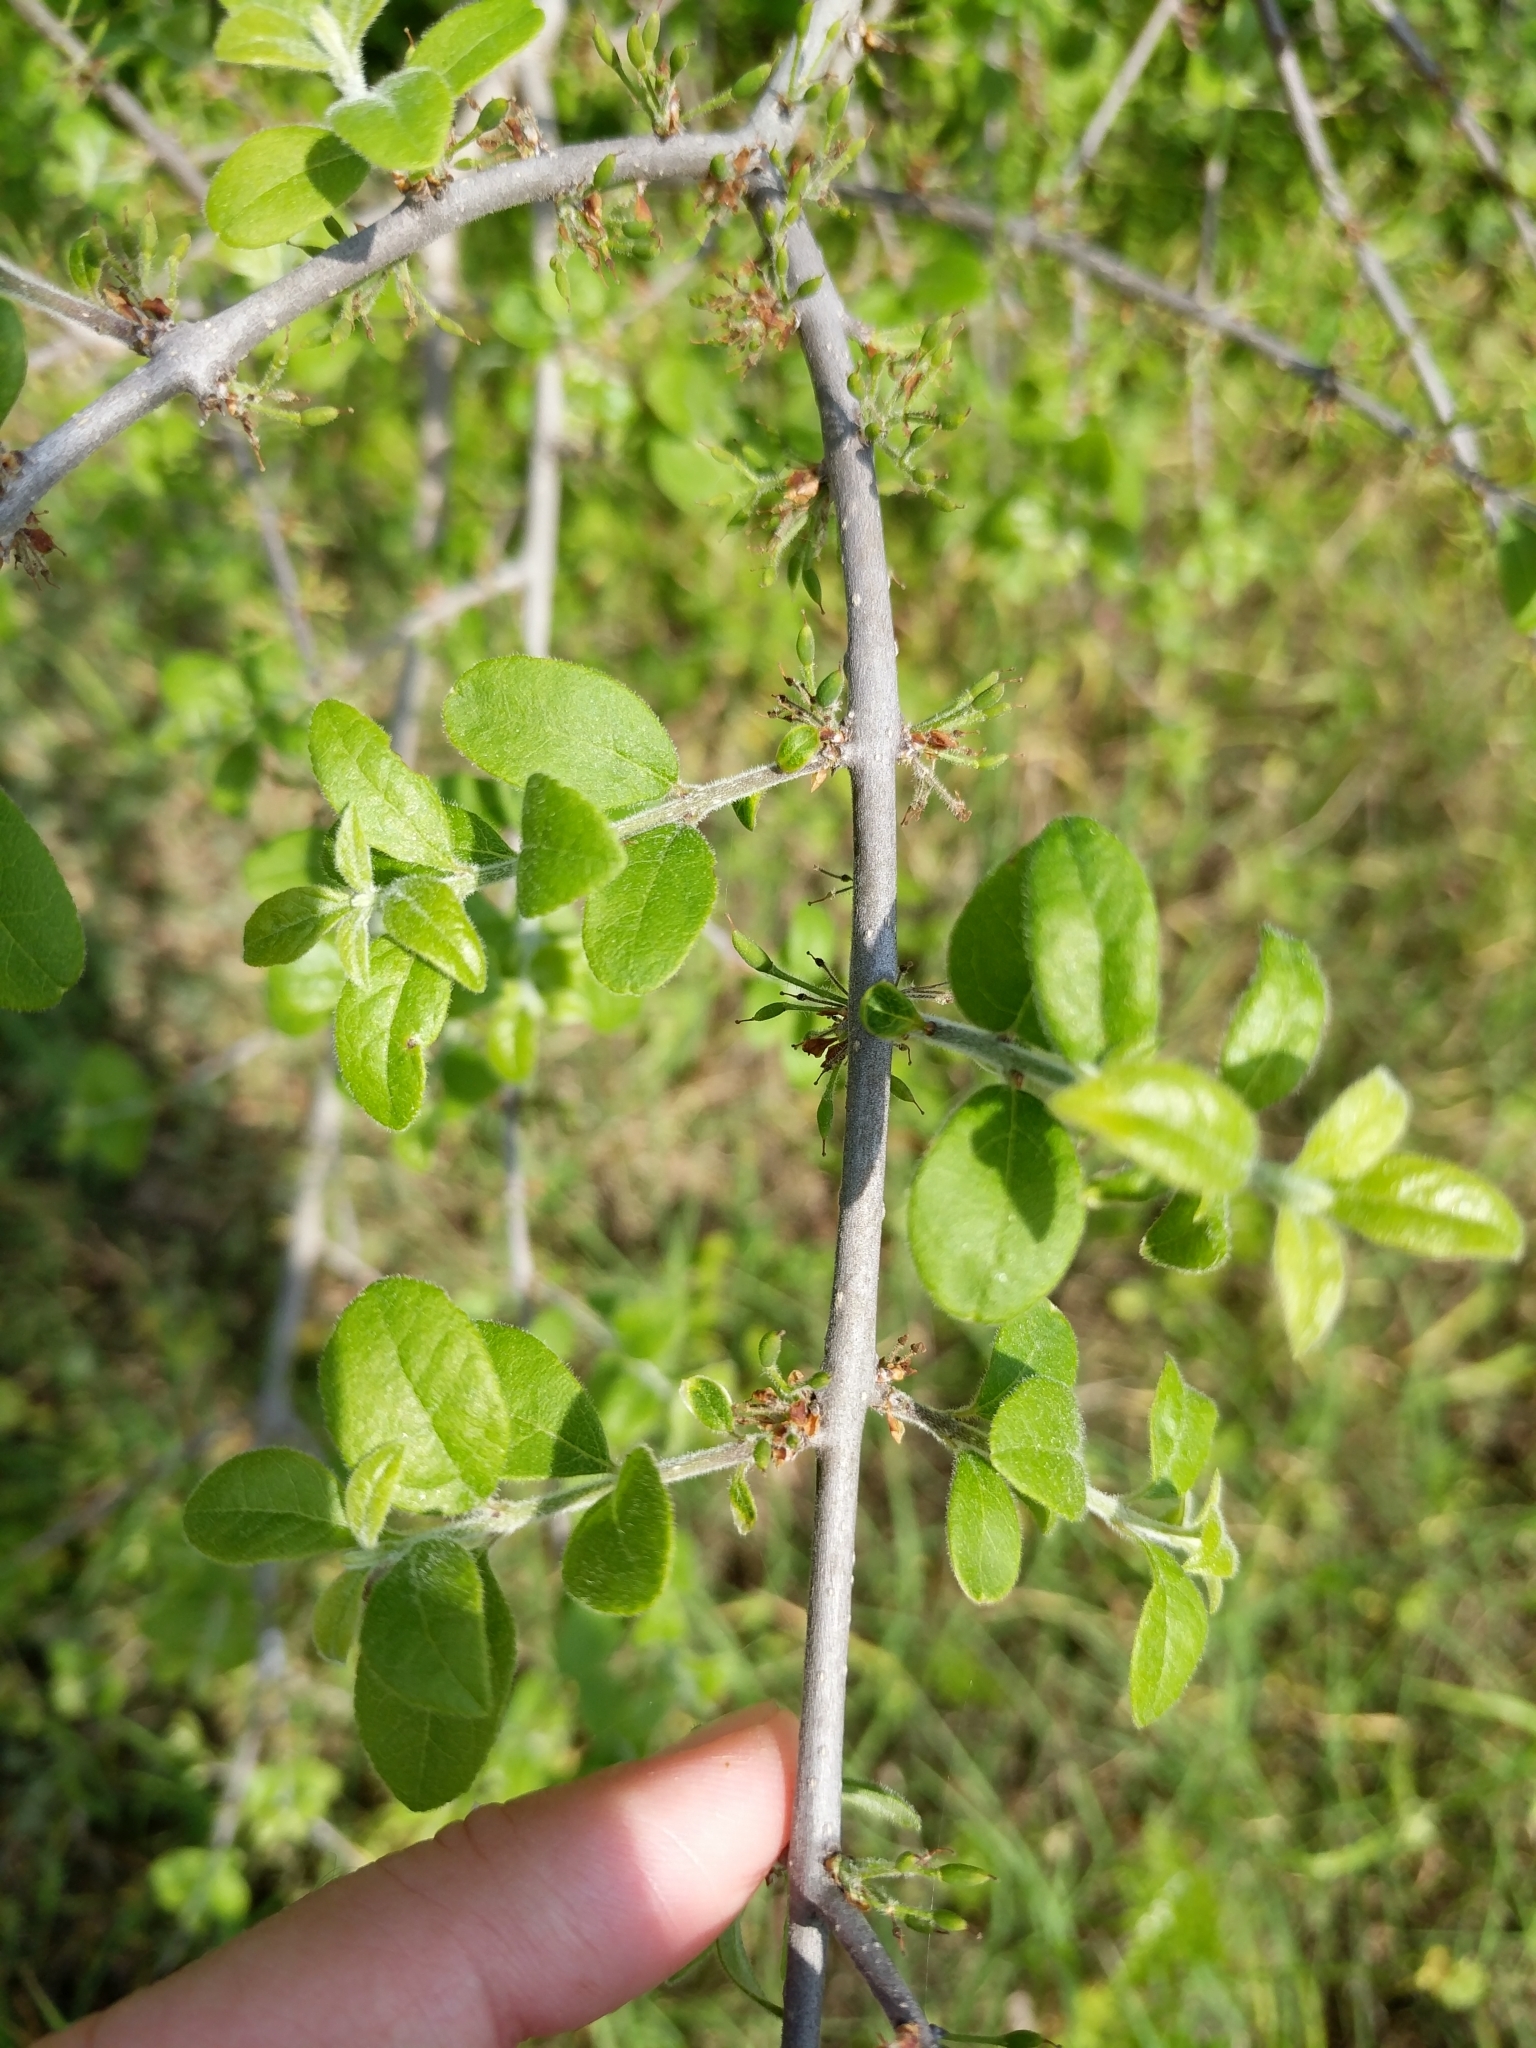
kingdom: Plantae
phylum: Tracheophyta
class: Magnoliopsida
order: Lamiales
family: Oleaceae
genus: Forestiera
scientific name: Forestiera pubescens
